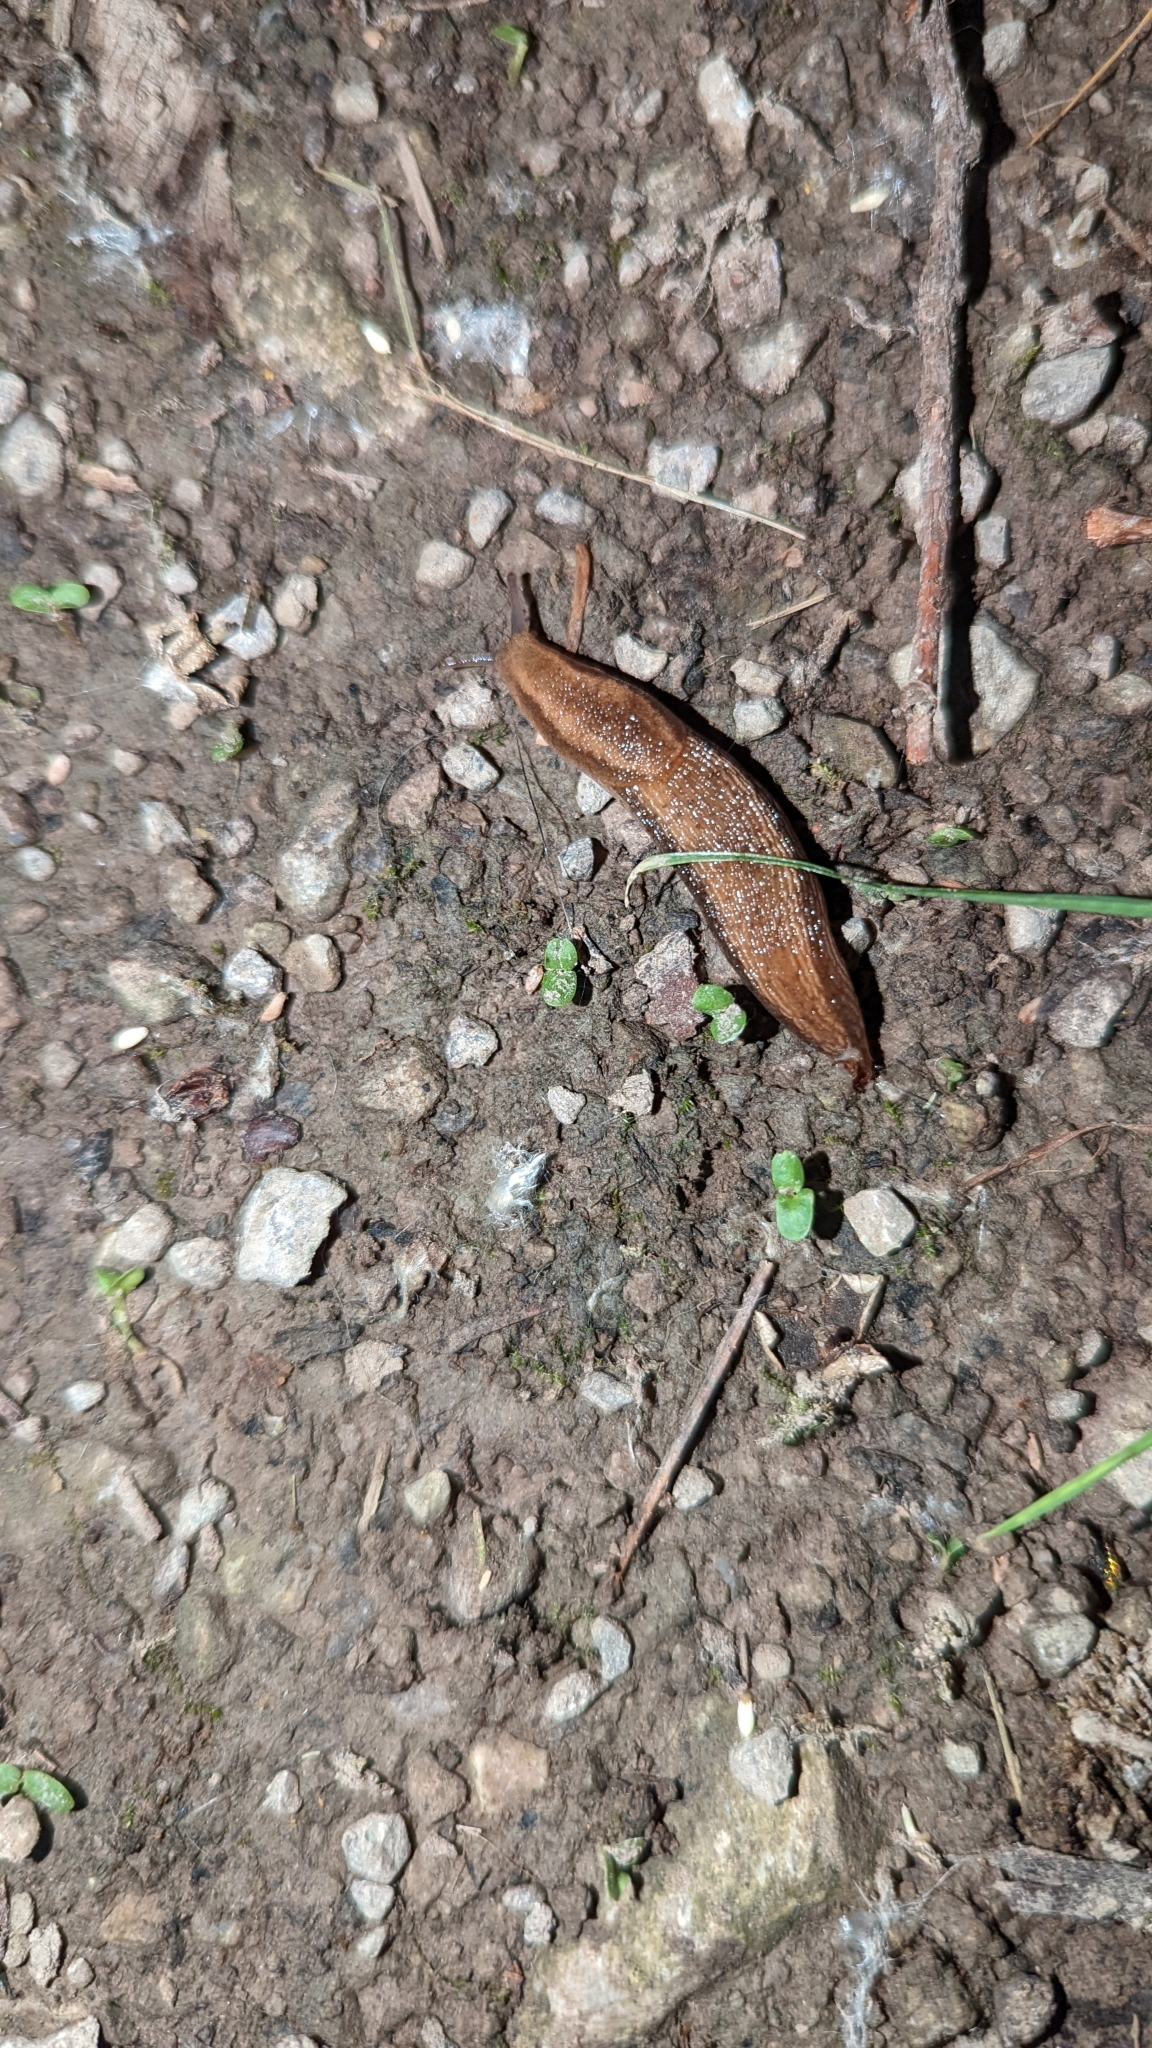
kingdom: Animalia
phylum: Mollusca
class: Gastropoda
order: Stylommatophora
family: Arionidae
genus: Arion
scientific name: Arion subfuscus
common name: Dusky arion
